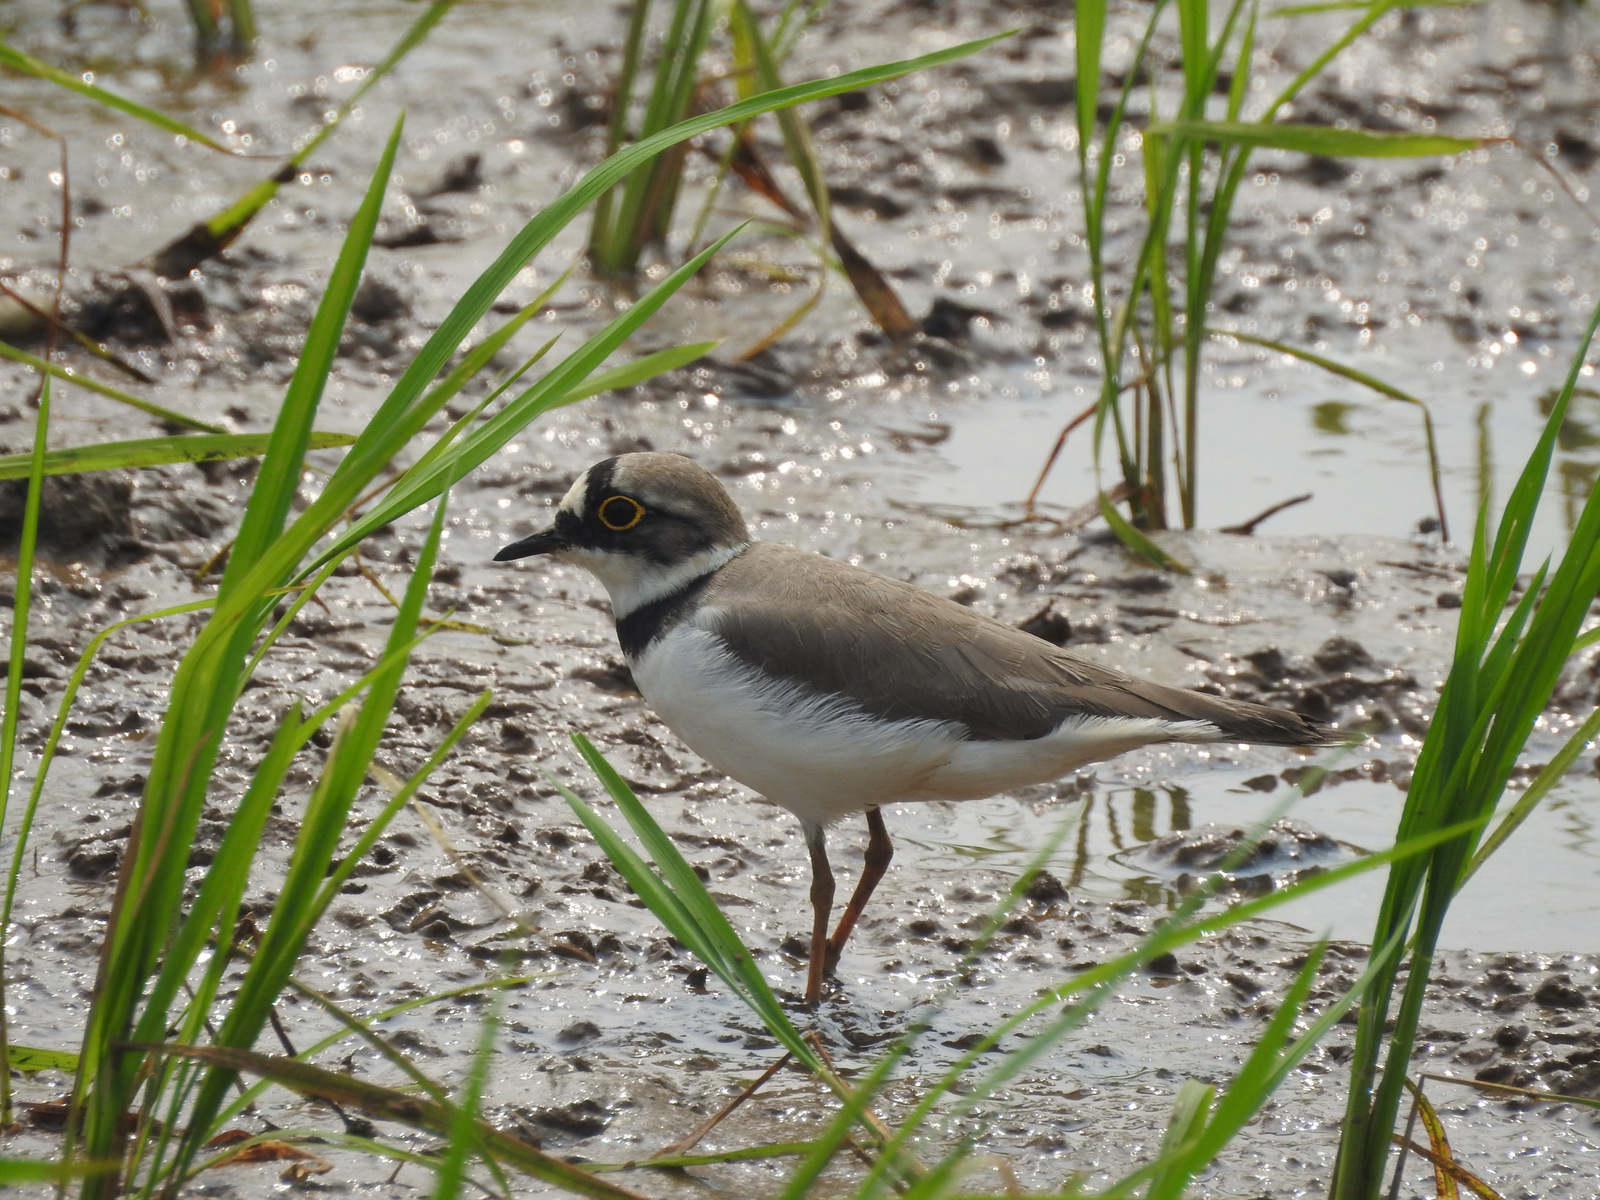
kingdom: Animalia
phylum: Chordata
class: Aves
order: Charadriiformes
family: Charadriidae
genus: Charadrius
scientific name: Charadrius dubius
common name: Little ringed plover
